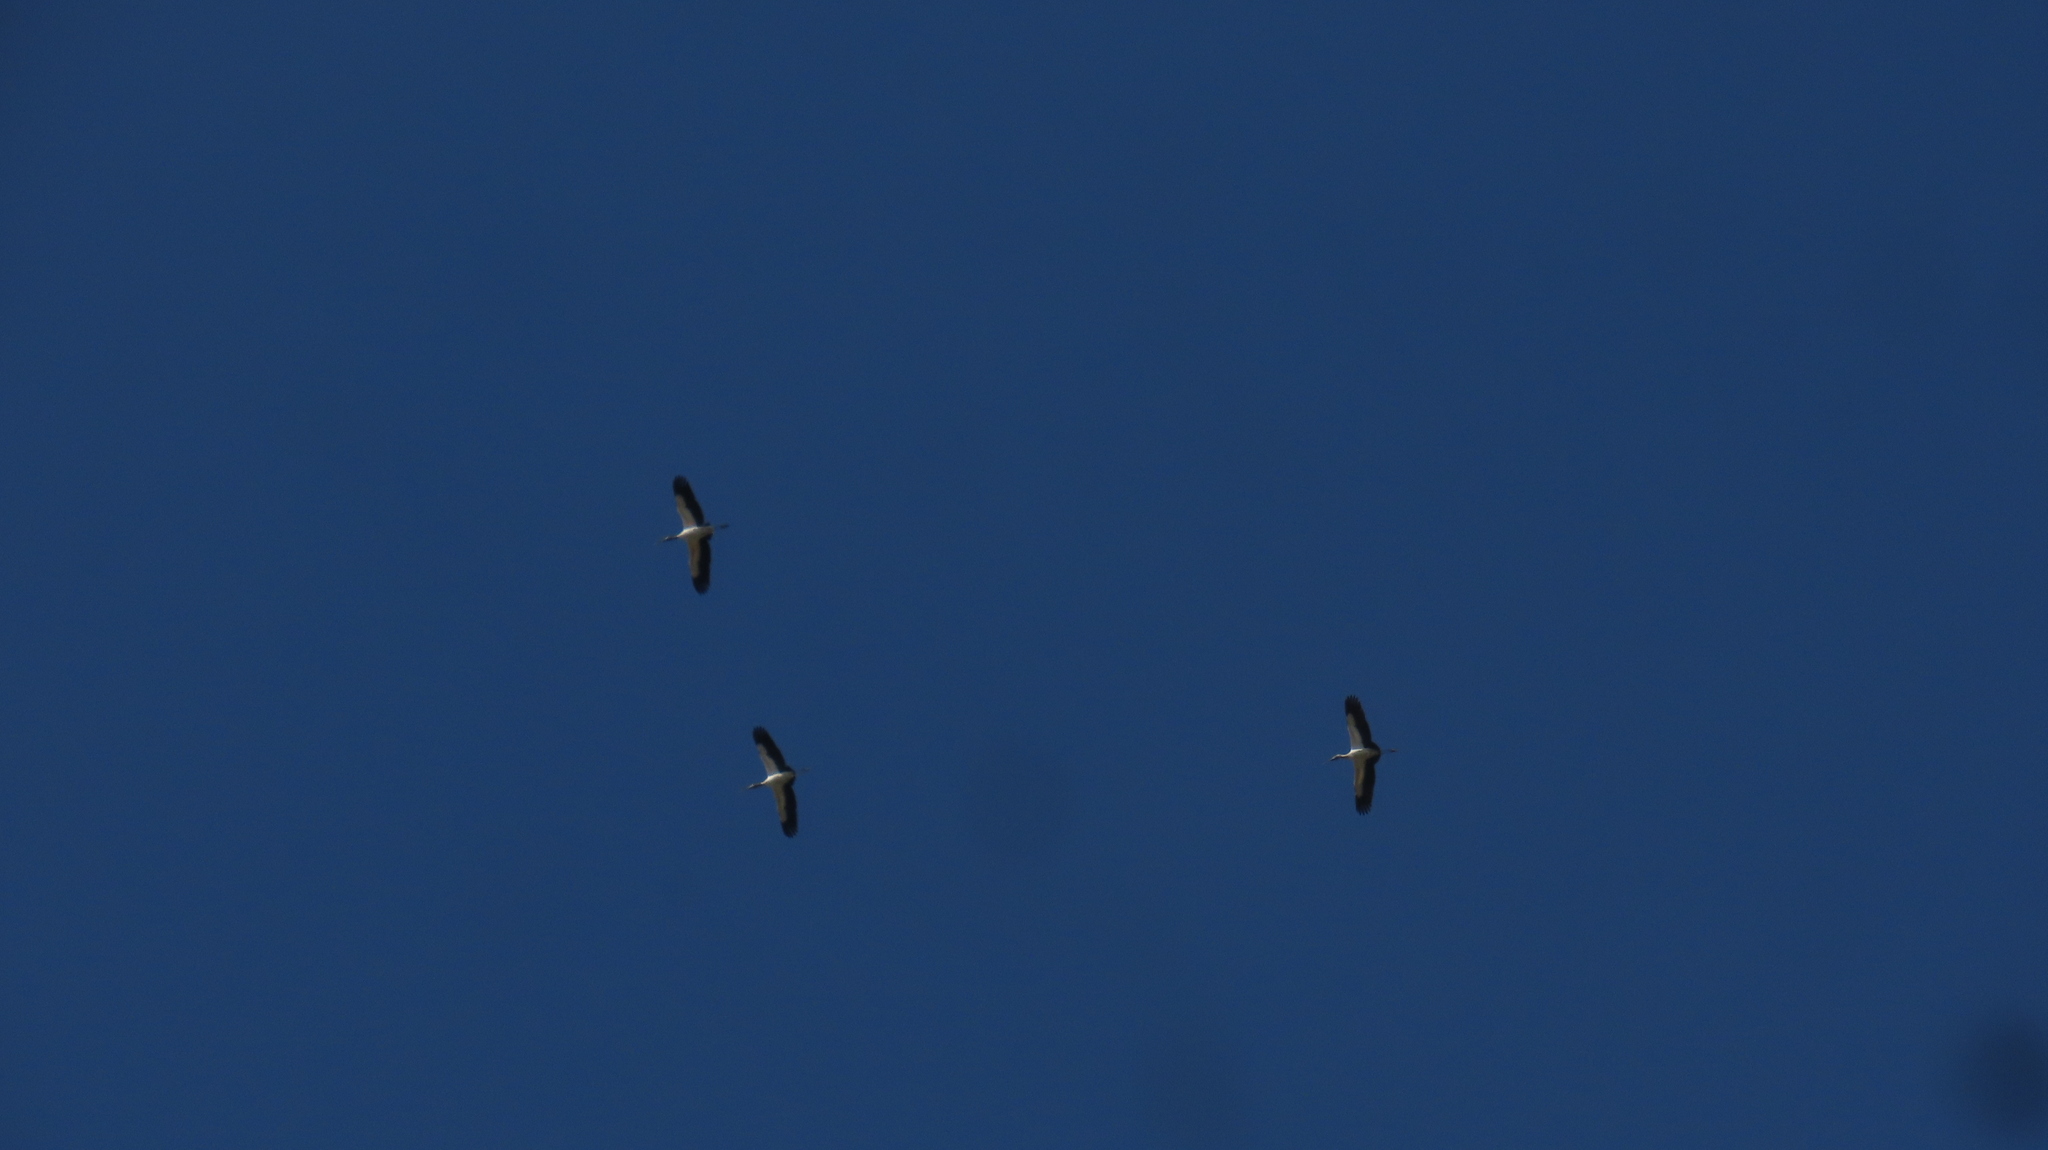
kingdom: Animalia
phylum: Chordata
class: Aves
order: Ciconiiformes
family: Ciconiidae
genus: Mycteria
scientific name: Mycteria americana
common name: Wood stork
